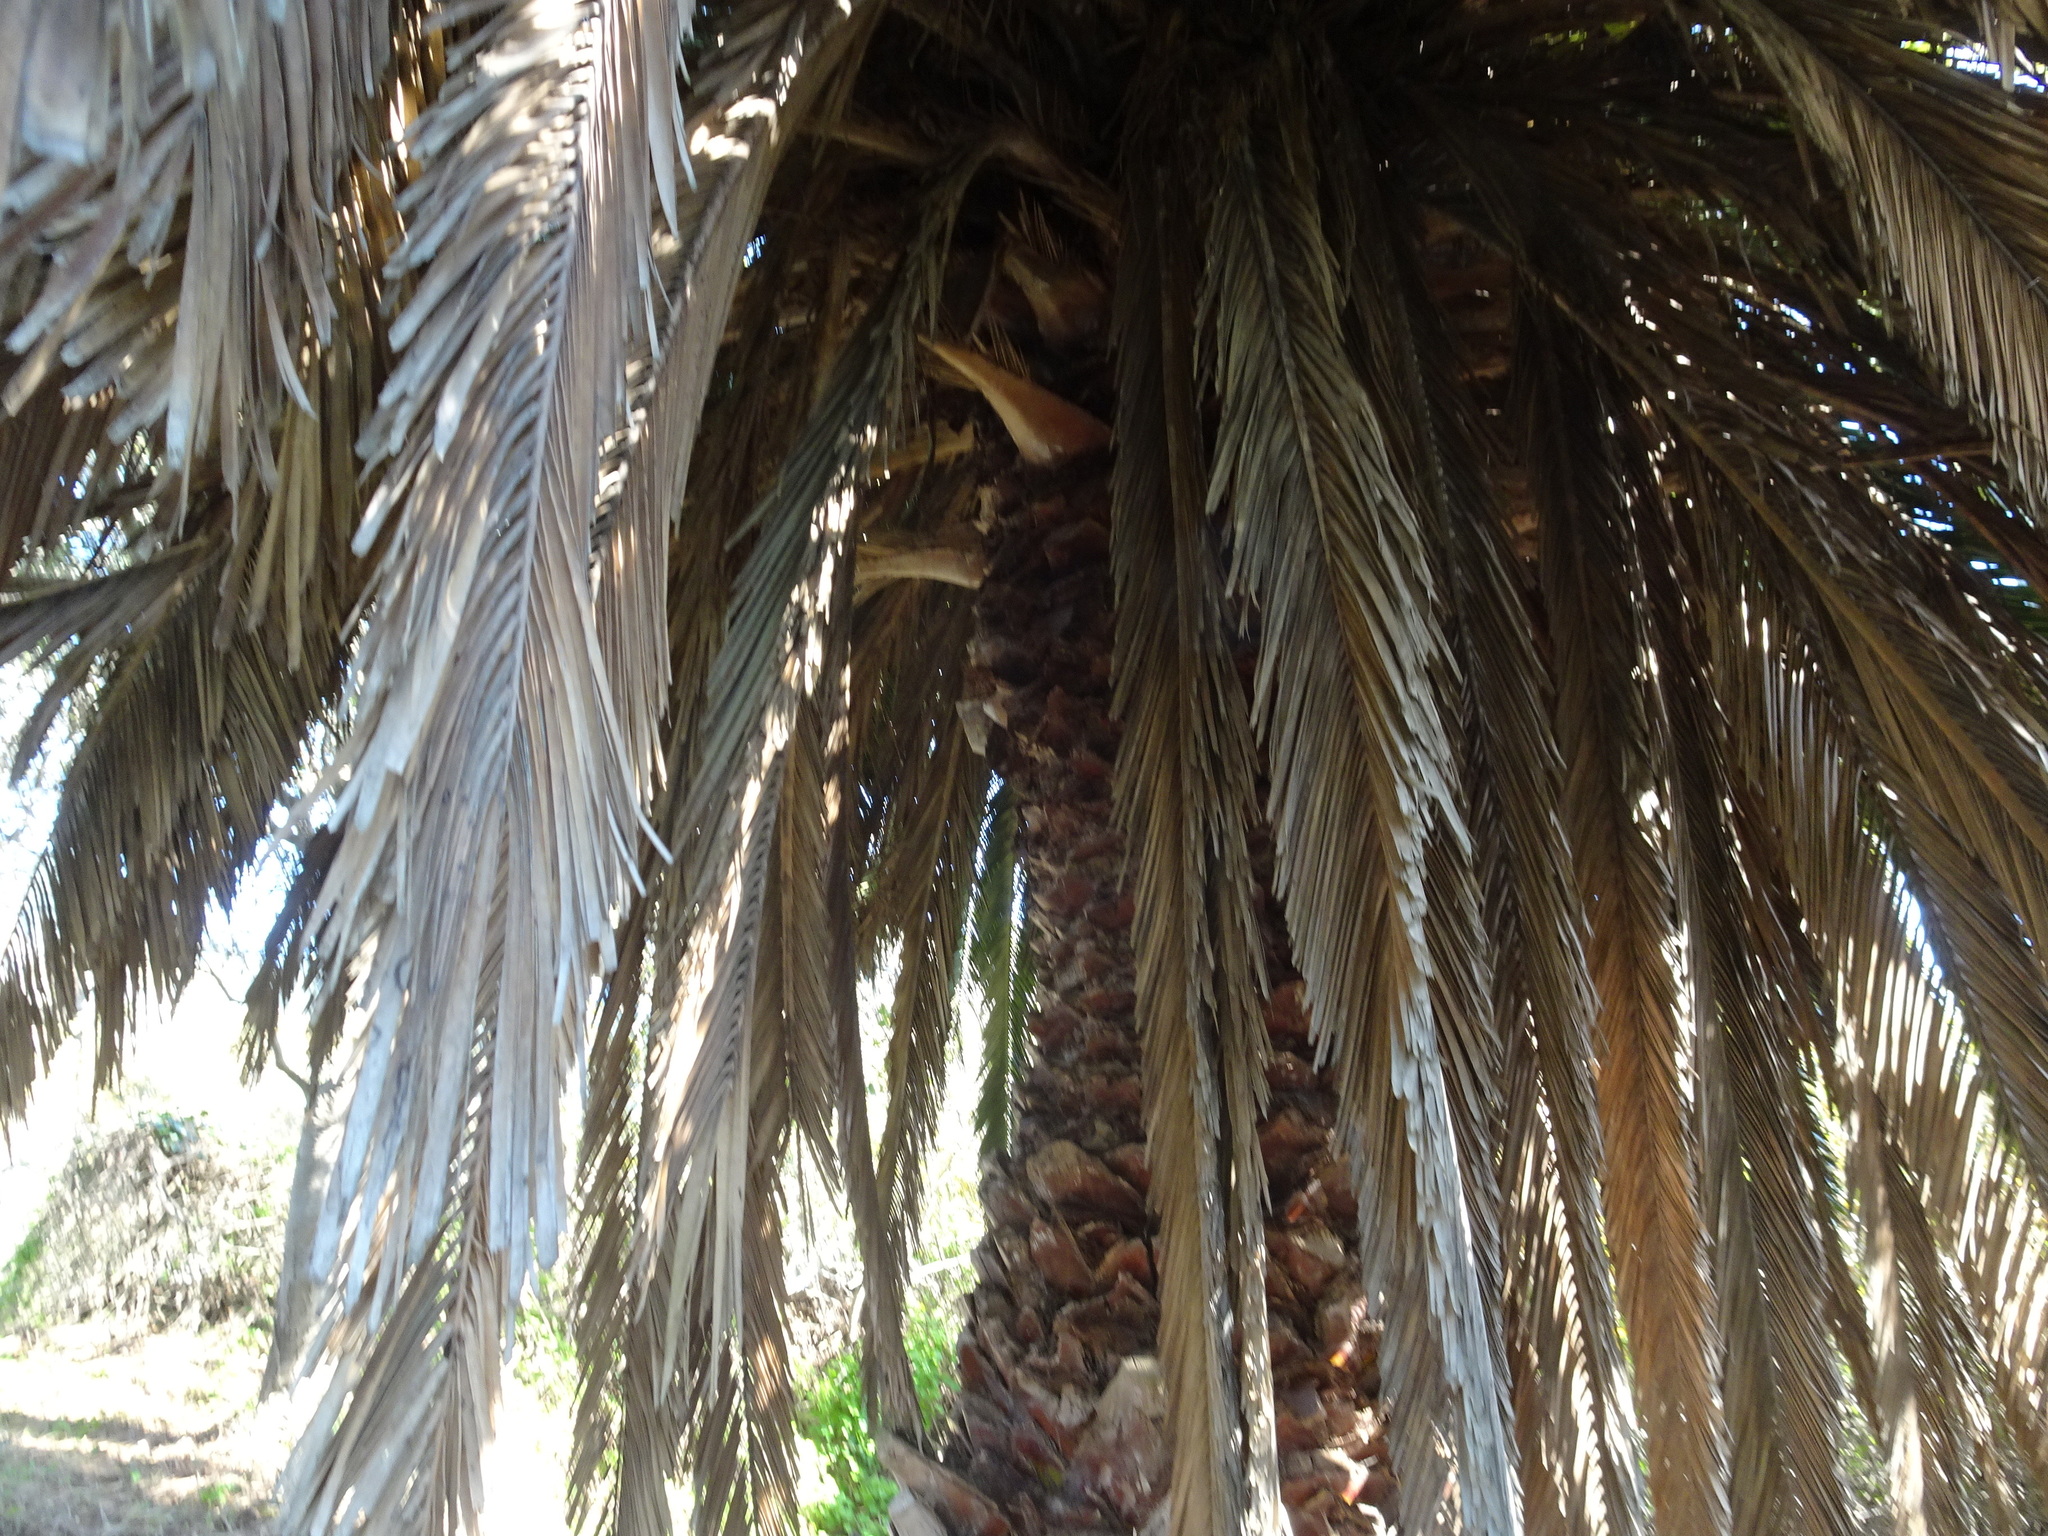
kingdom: Plantae
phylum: Tracheophyta
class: Liliopsida
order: Arecales
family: Arecaceae
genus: Phoenix
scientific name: Phoenix canariensis
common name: Canary island date palm
